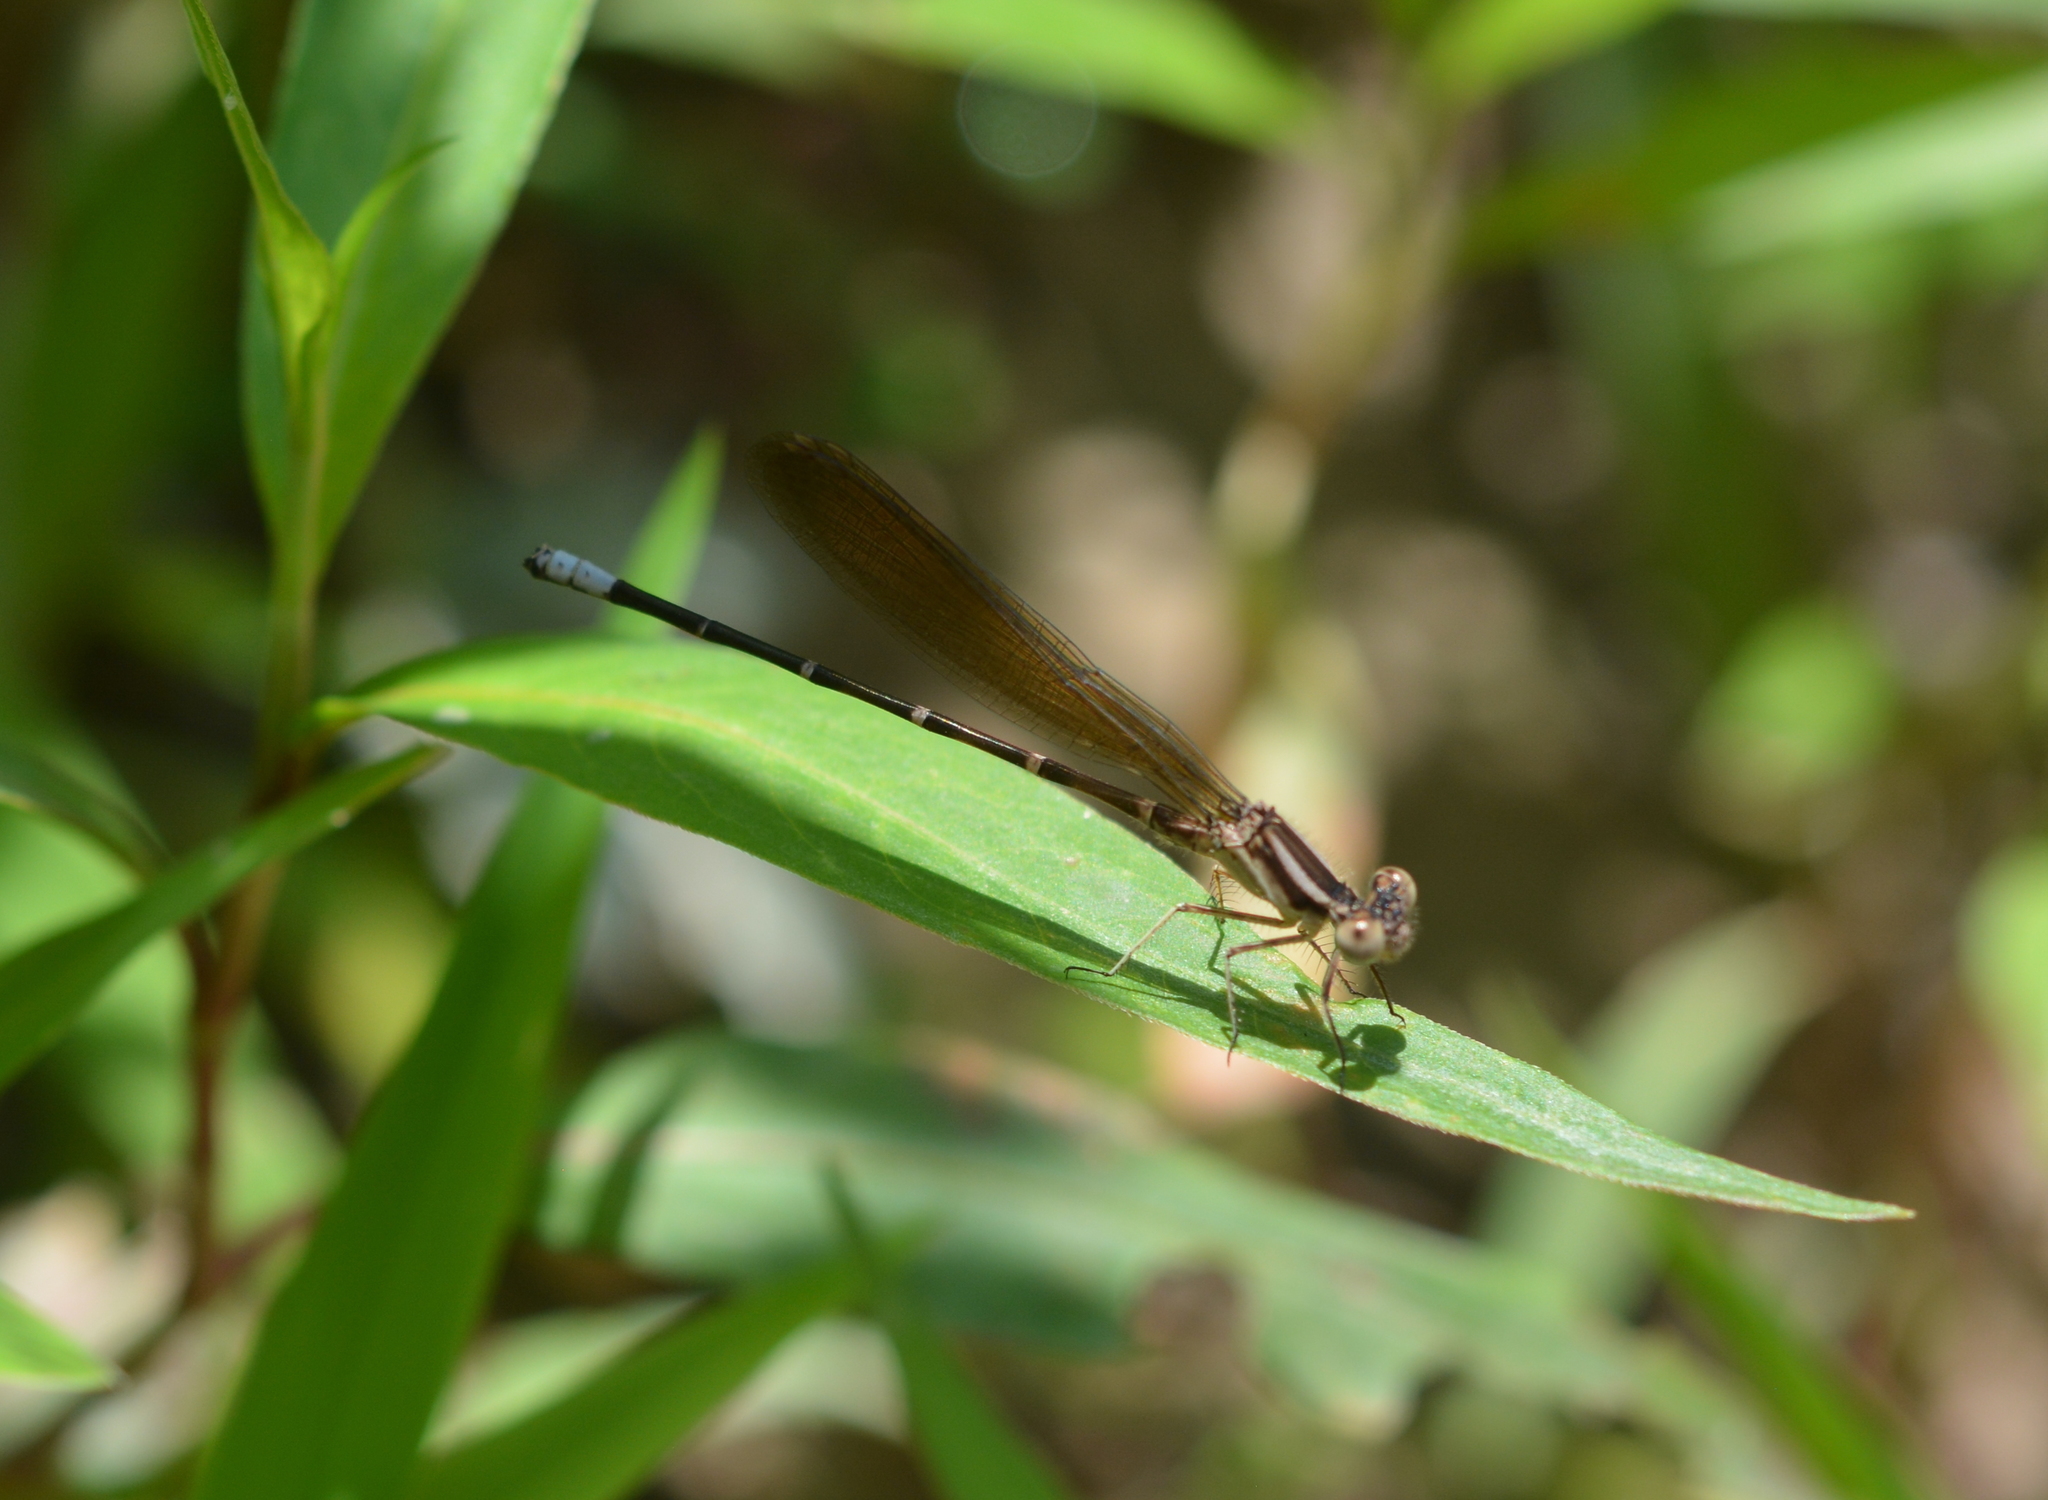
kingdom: Animalia
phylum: Arthropoda
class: Insecta
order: Odonata
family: Coenagrionidae
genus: Argia
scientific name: Argia sedula
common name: Blue-ringed dancer
